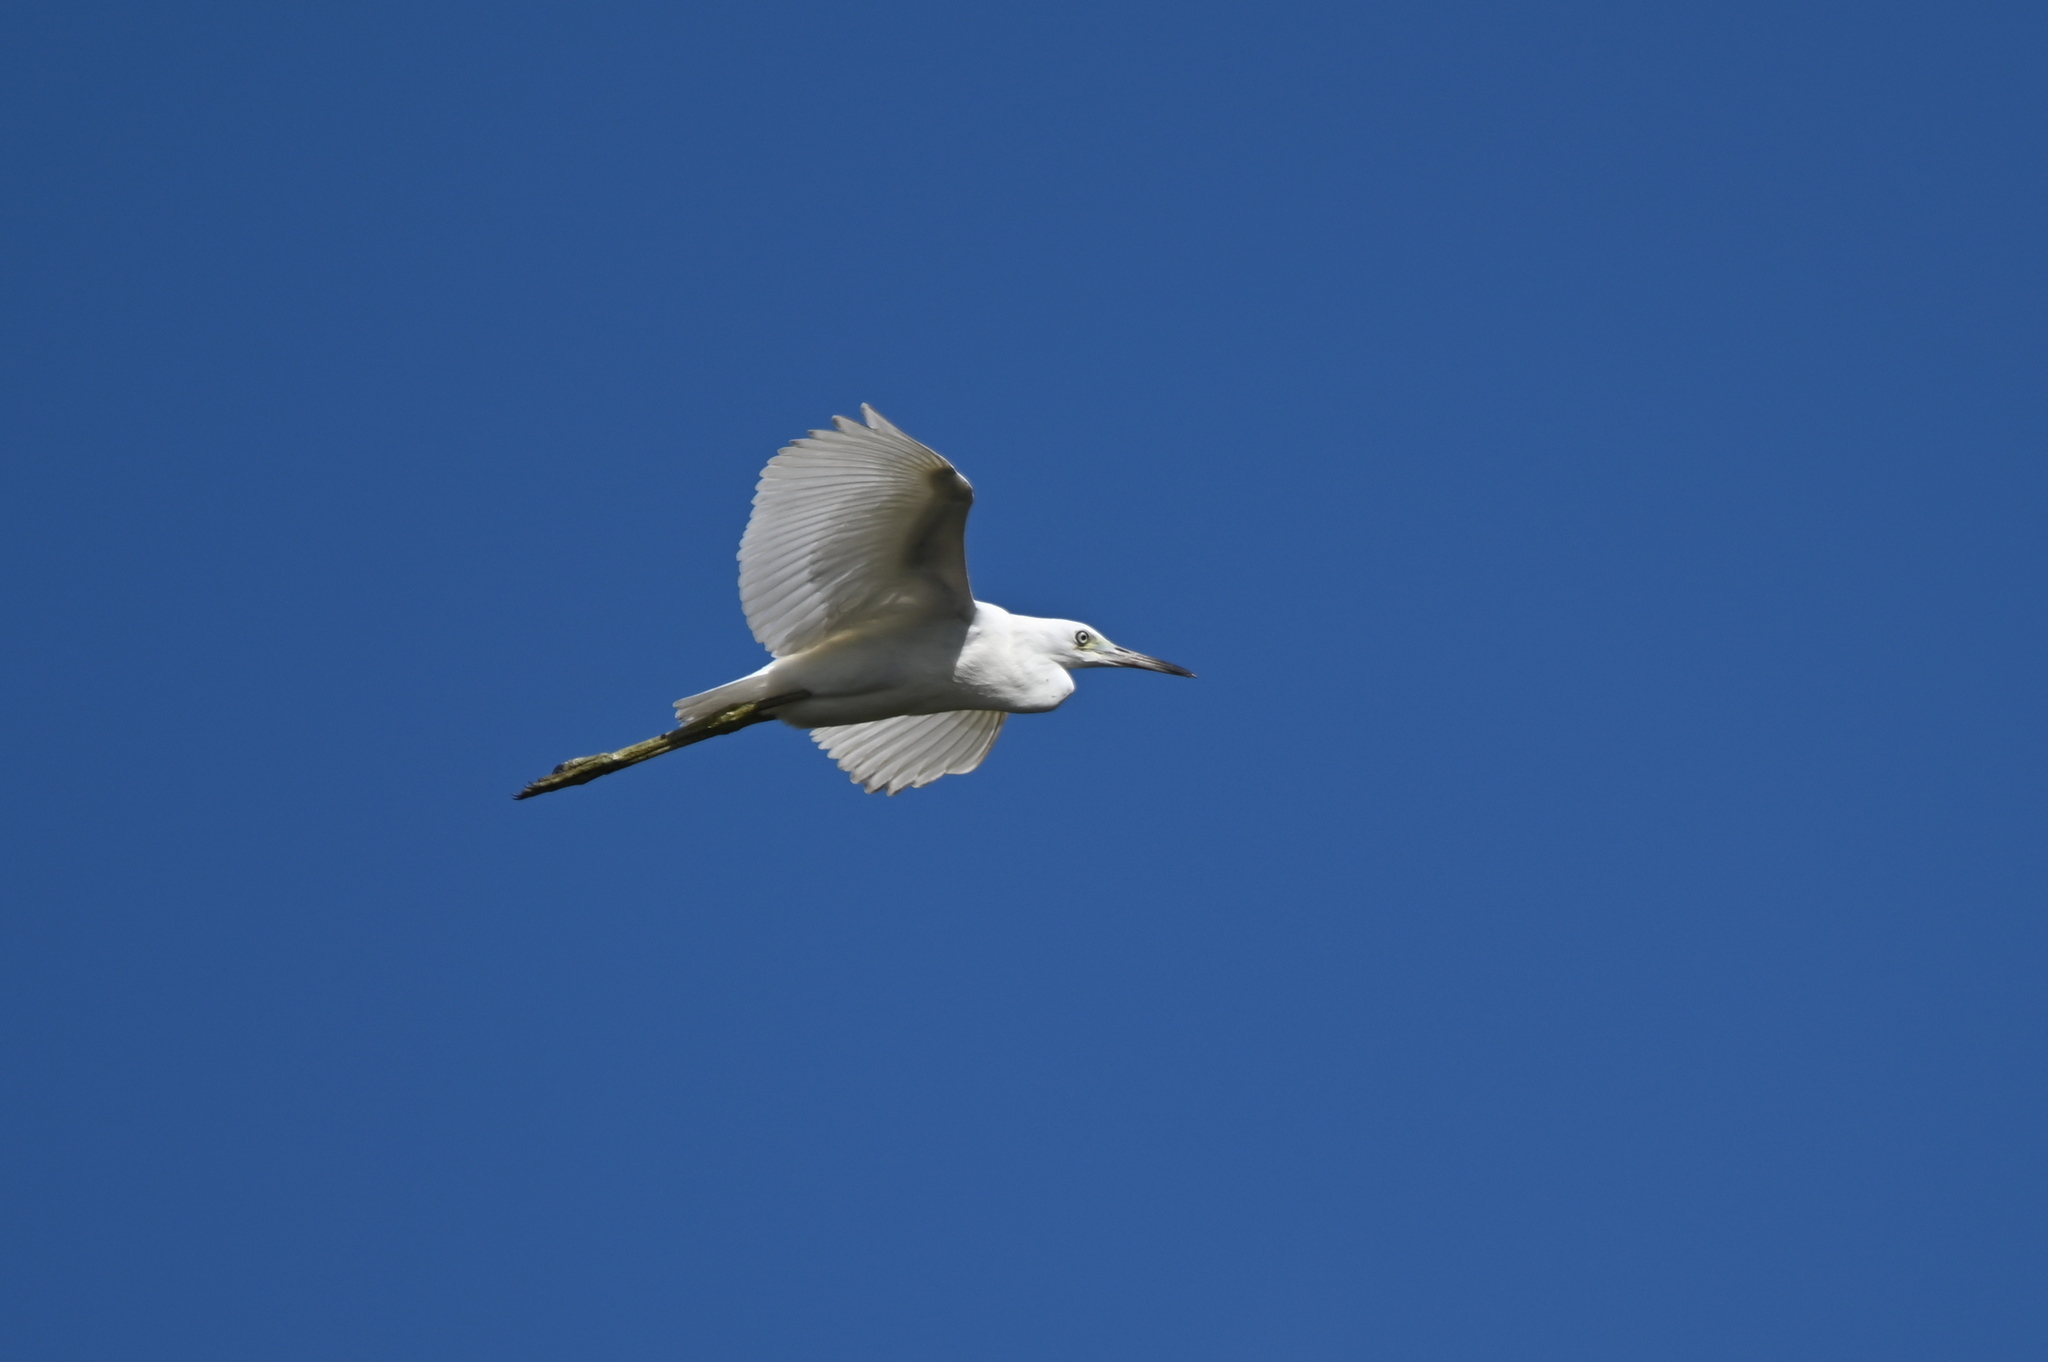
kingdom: Animalia
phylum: Chordata
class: Aves
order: Pelecaniformes
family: Ardeidae
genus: Egretta
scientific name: Egretta caerulea
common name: Little blue heron
